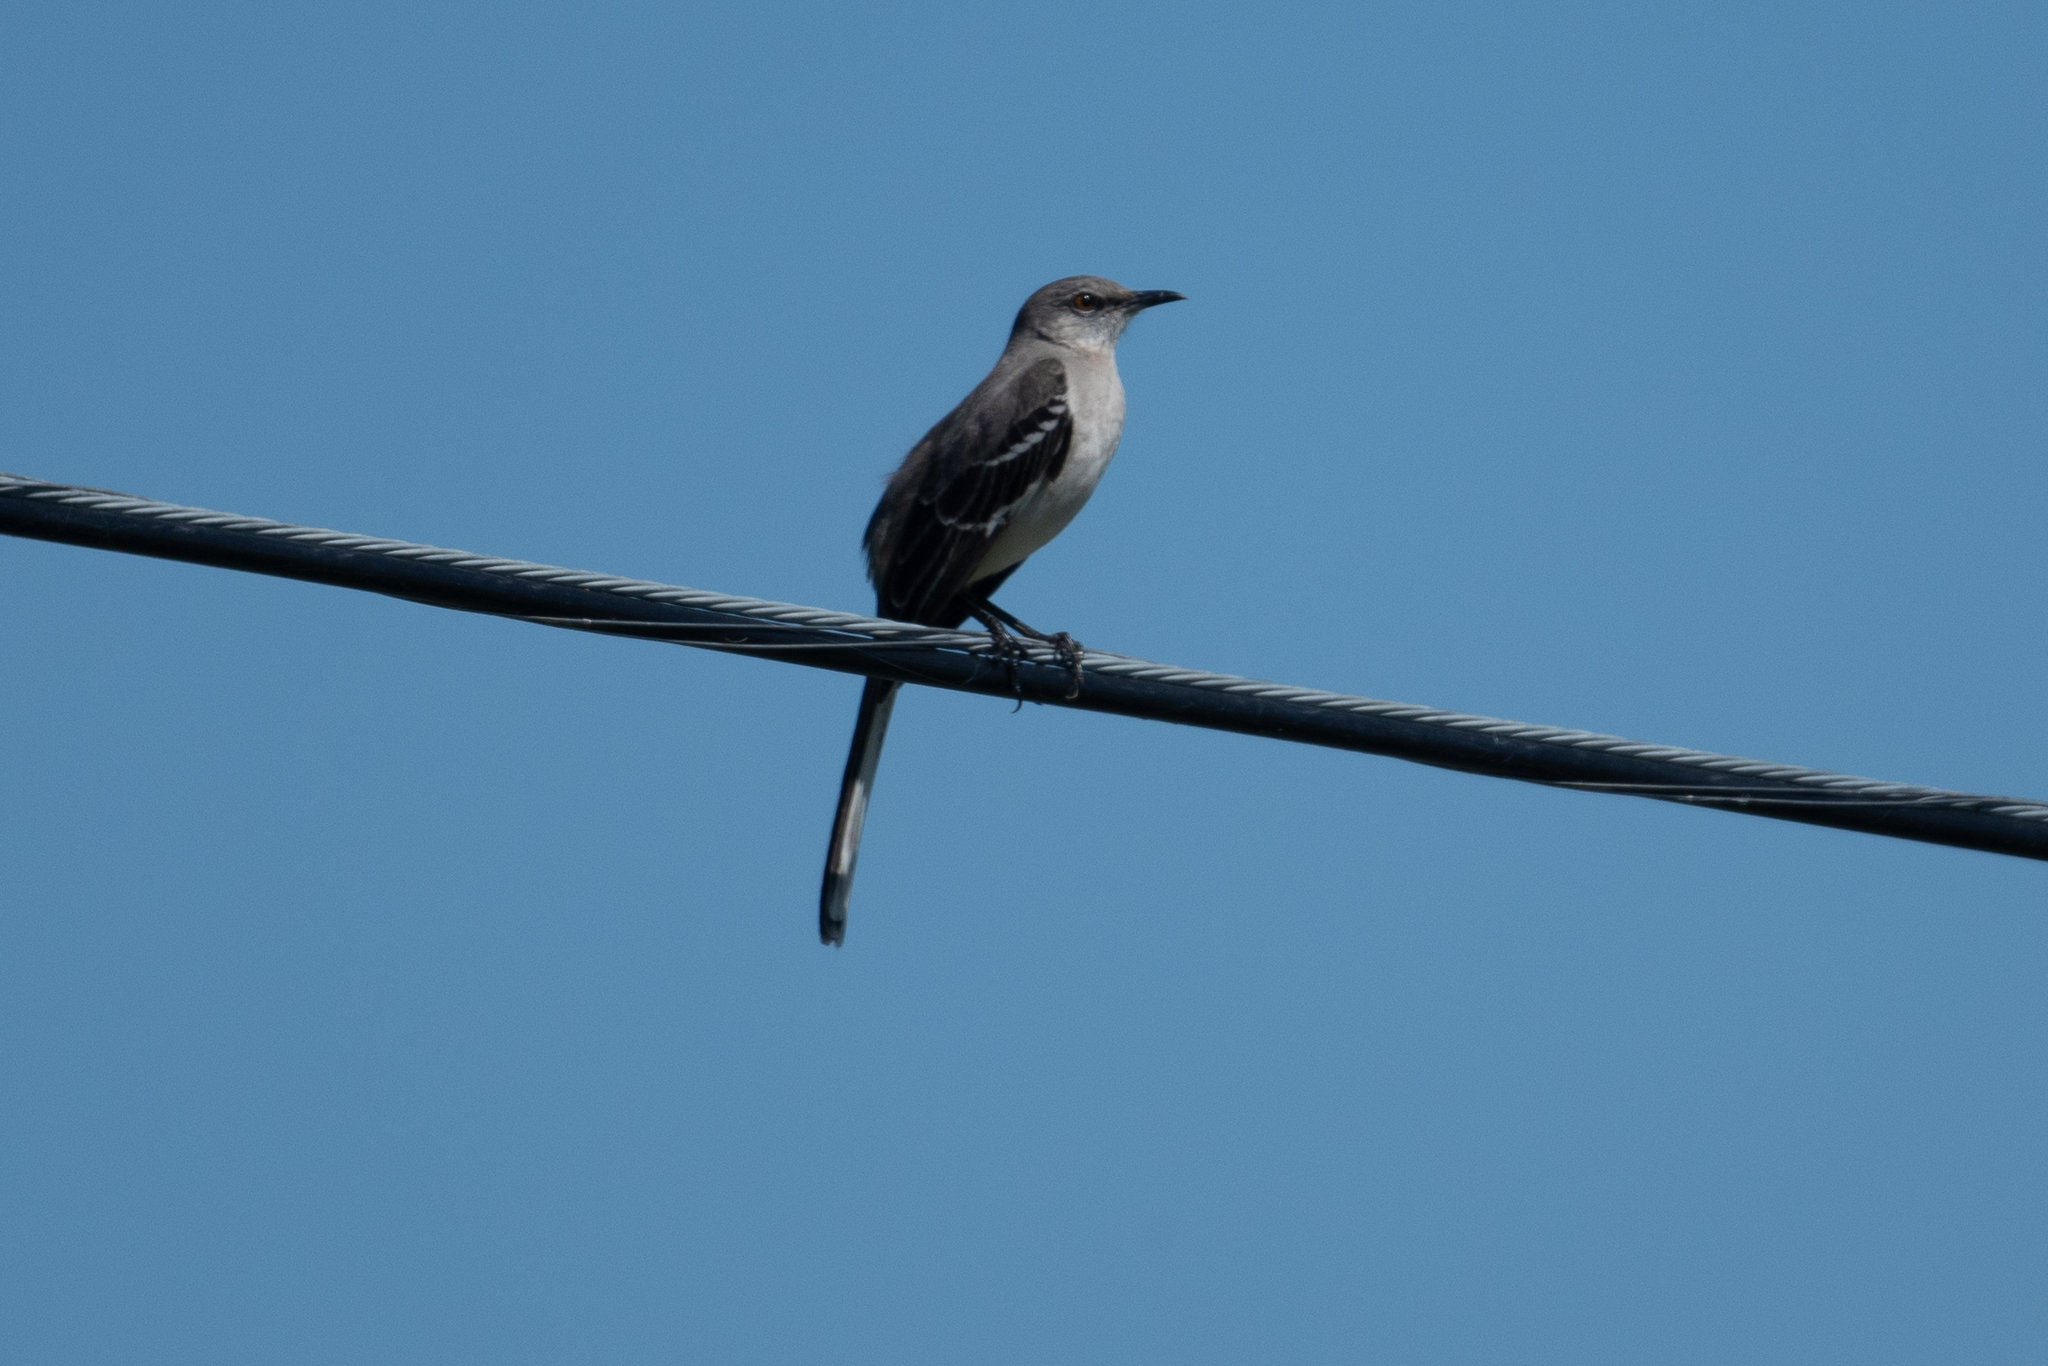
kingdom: Animalia
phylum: Chordata
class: Aves
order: Passeriformes
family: Mimidae
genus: Mimus
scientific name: Mimus polyglottos
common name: Northern mockingbird
